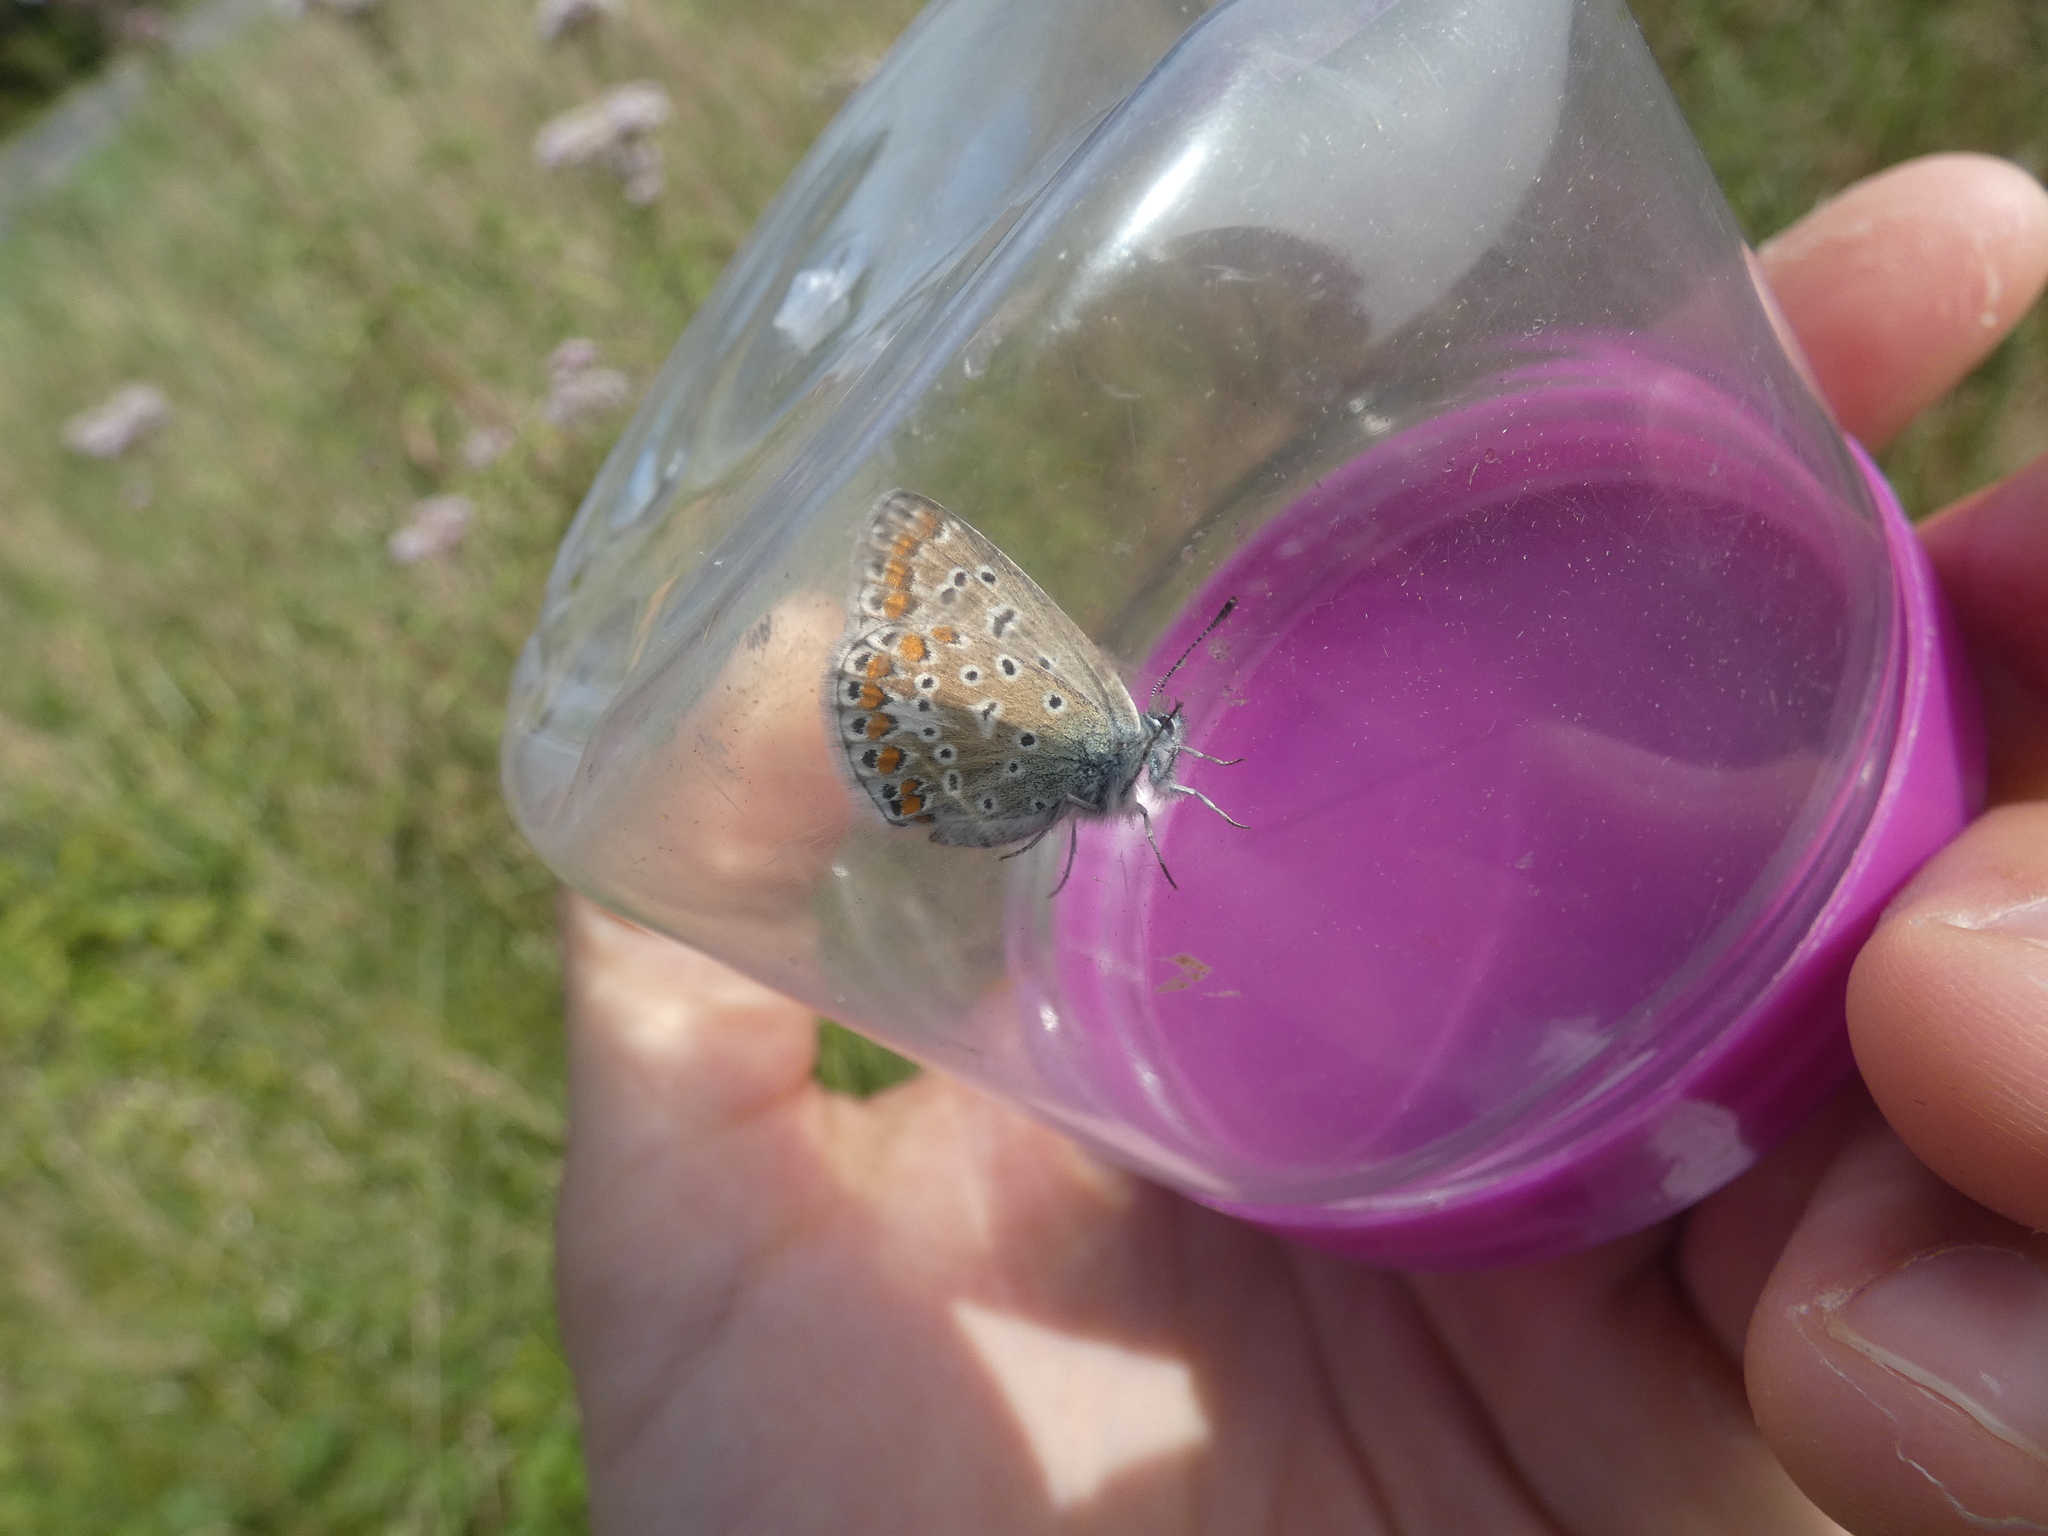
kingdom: Animalia
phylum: Arthropoda
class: Insecta
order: Lepidoptera
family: Lycaenidae
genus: Polyommatus
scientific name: Polyommatus icarus
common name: Common blue
